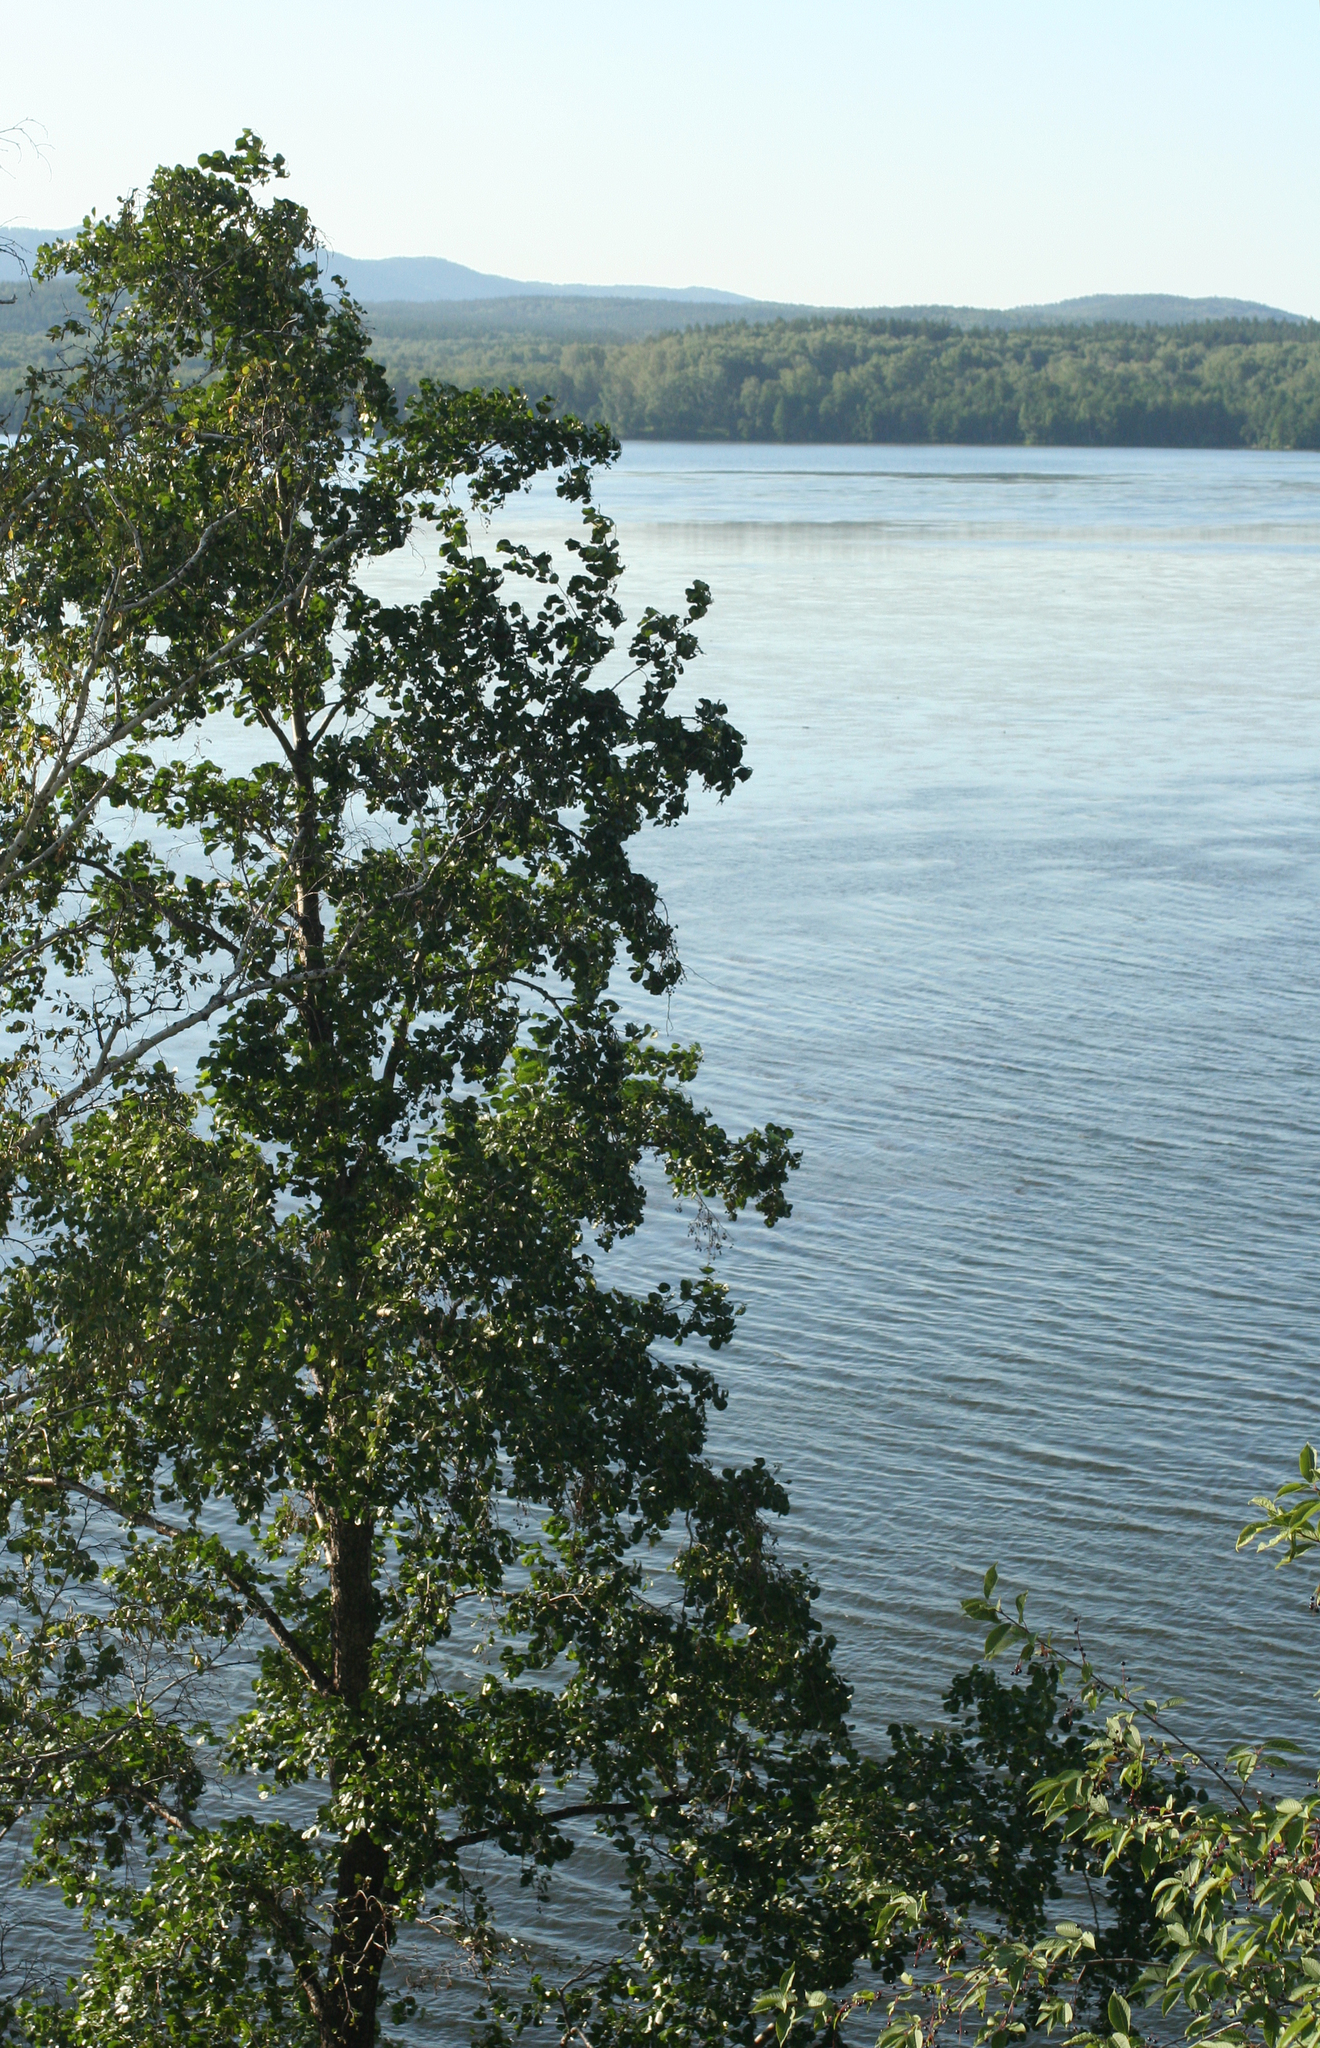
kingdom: Plantae
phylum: Tracheophyta
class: Magnoliopsida
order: Fagales
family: Betulaceae
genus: Alnus
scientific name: Alnus glutinosa
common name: Black alder
